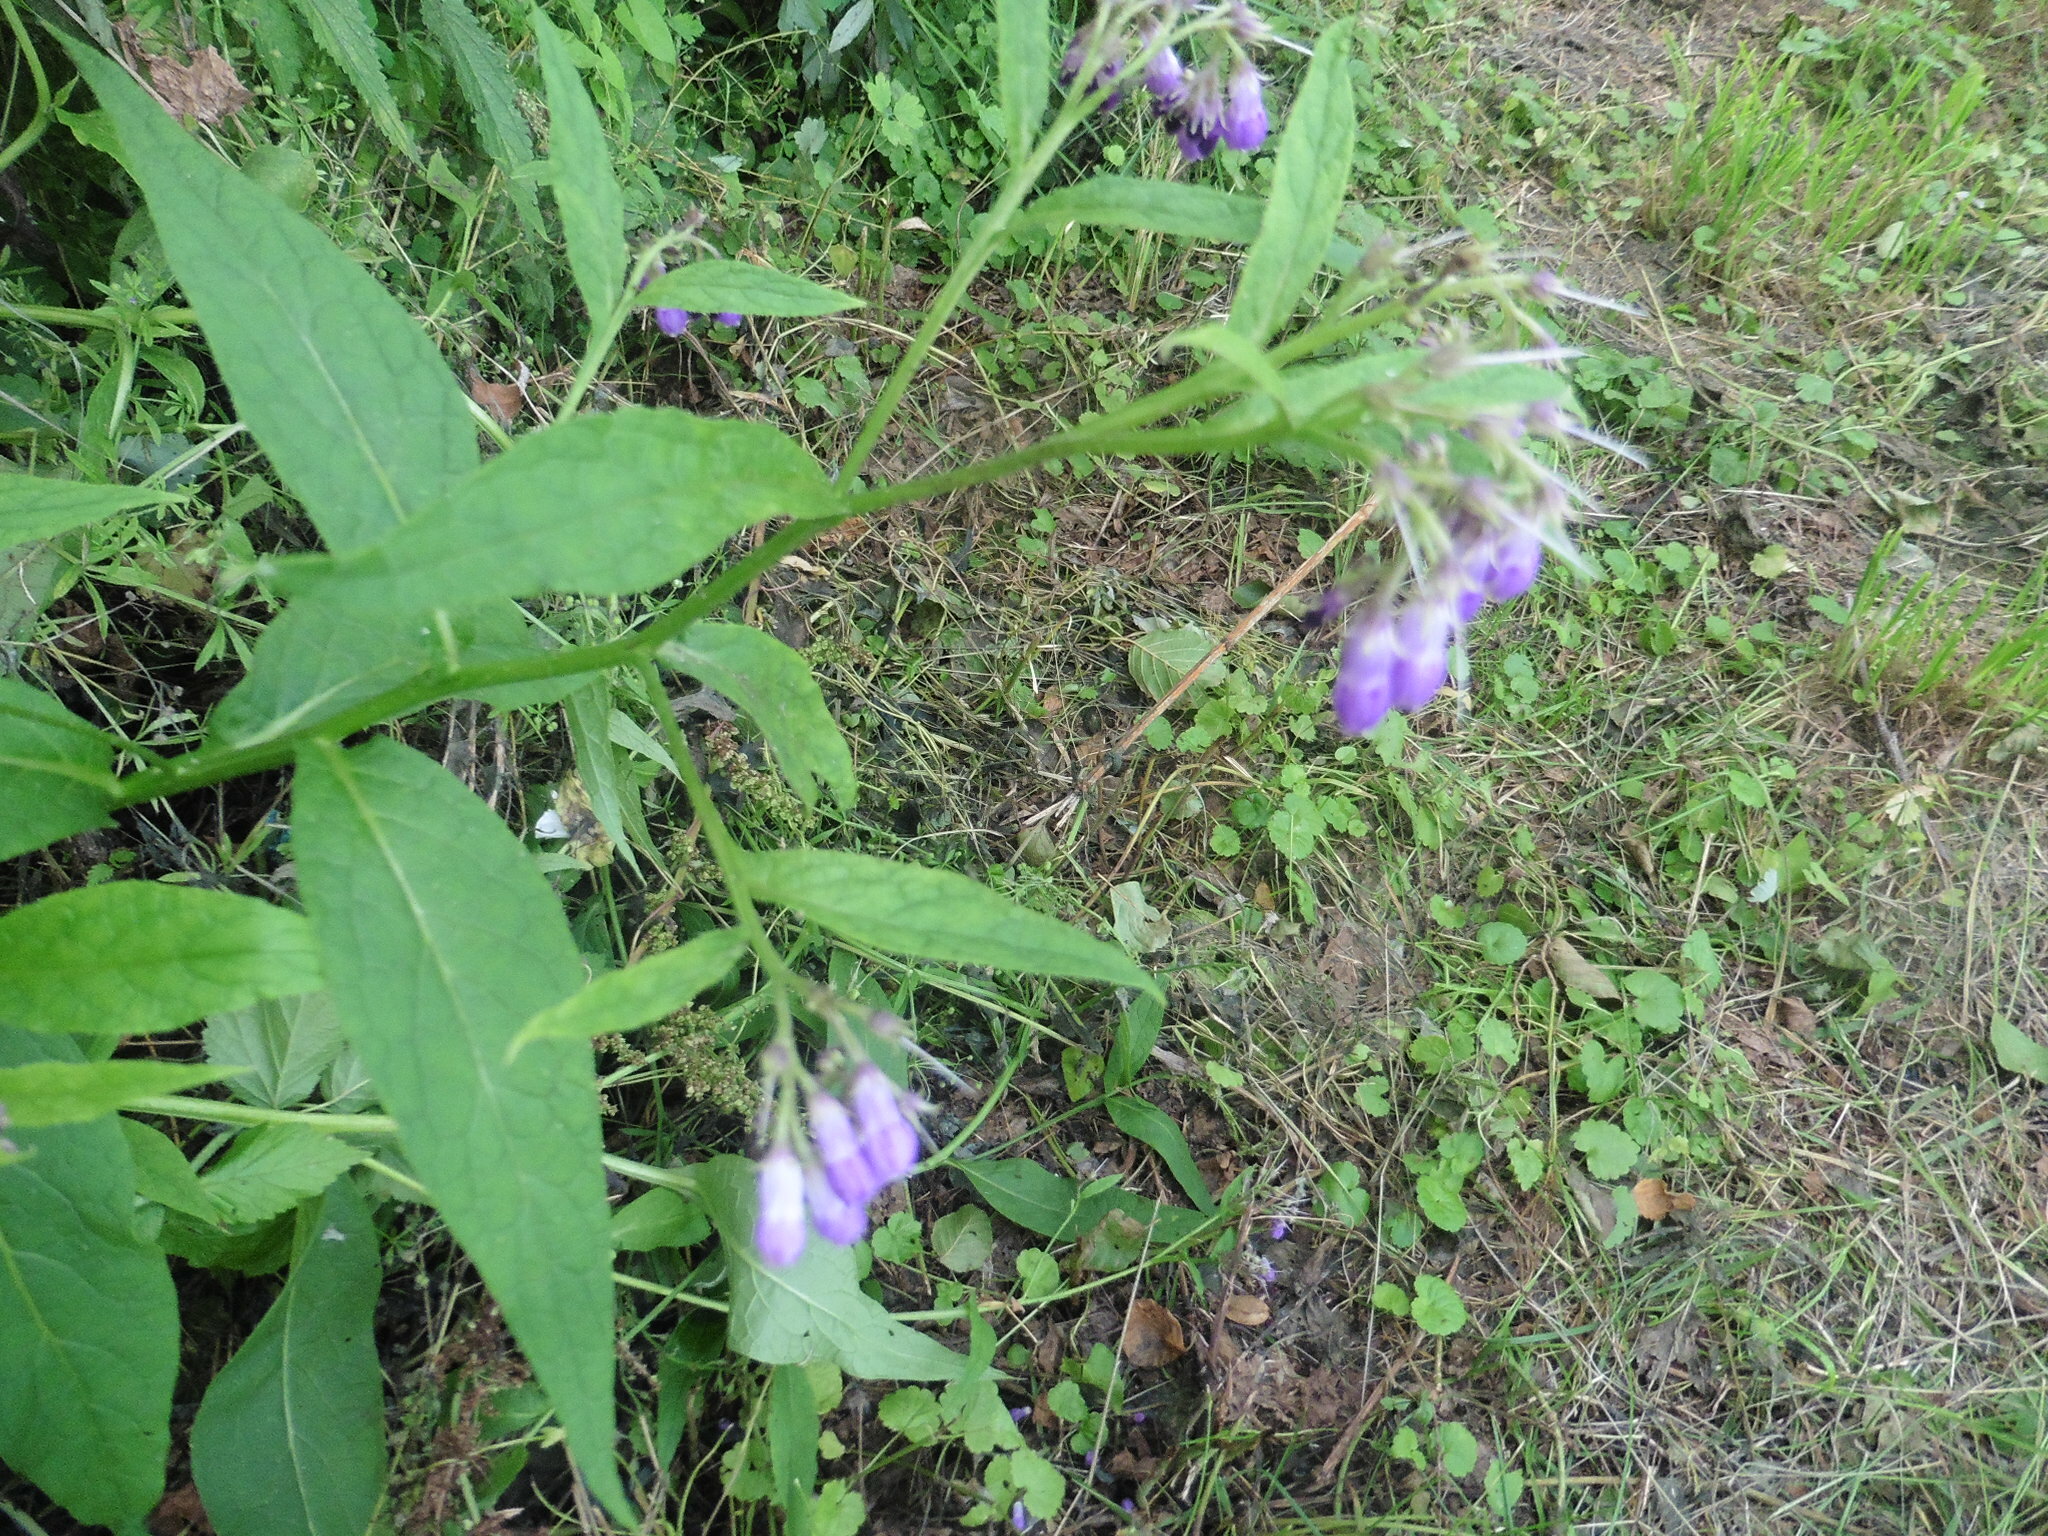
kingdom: Plantae
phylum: Tracheophyta
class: Magnoliopsida
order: Boraginales
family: Boraginaceae
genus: Symphytum
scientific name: Symphytum officinale
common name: Common comfrey
